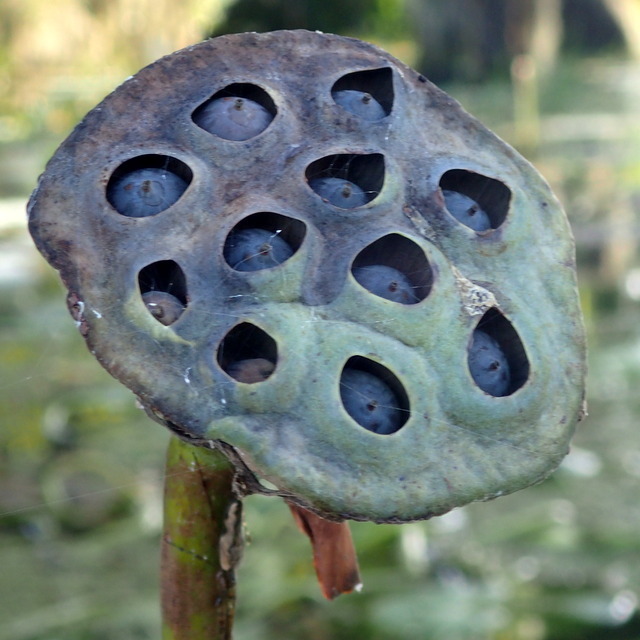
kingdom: Plantae
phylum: Tracheophyta
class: Magnoliopsida
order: Proteales
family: Nelumbonaceae
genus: Nelumbo
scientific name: Nelumbo lutea
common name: American lotus
